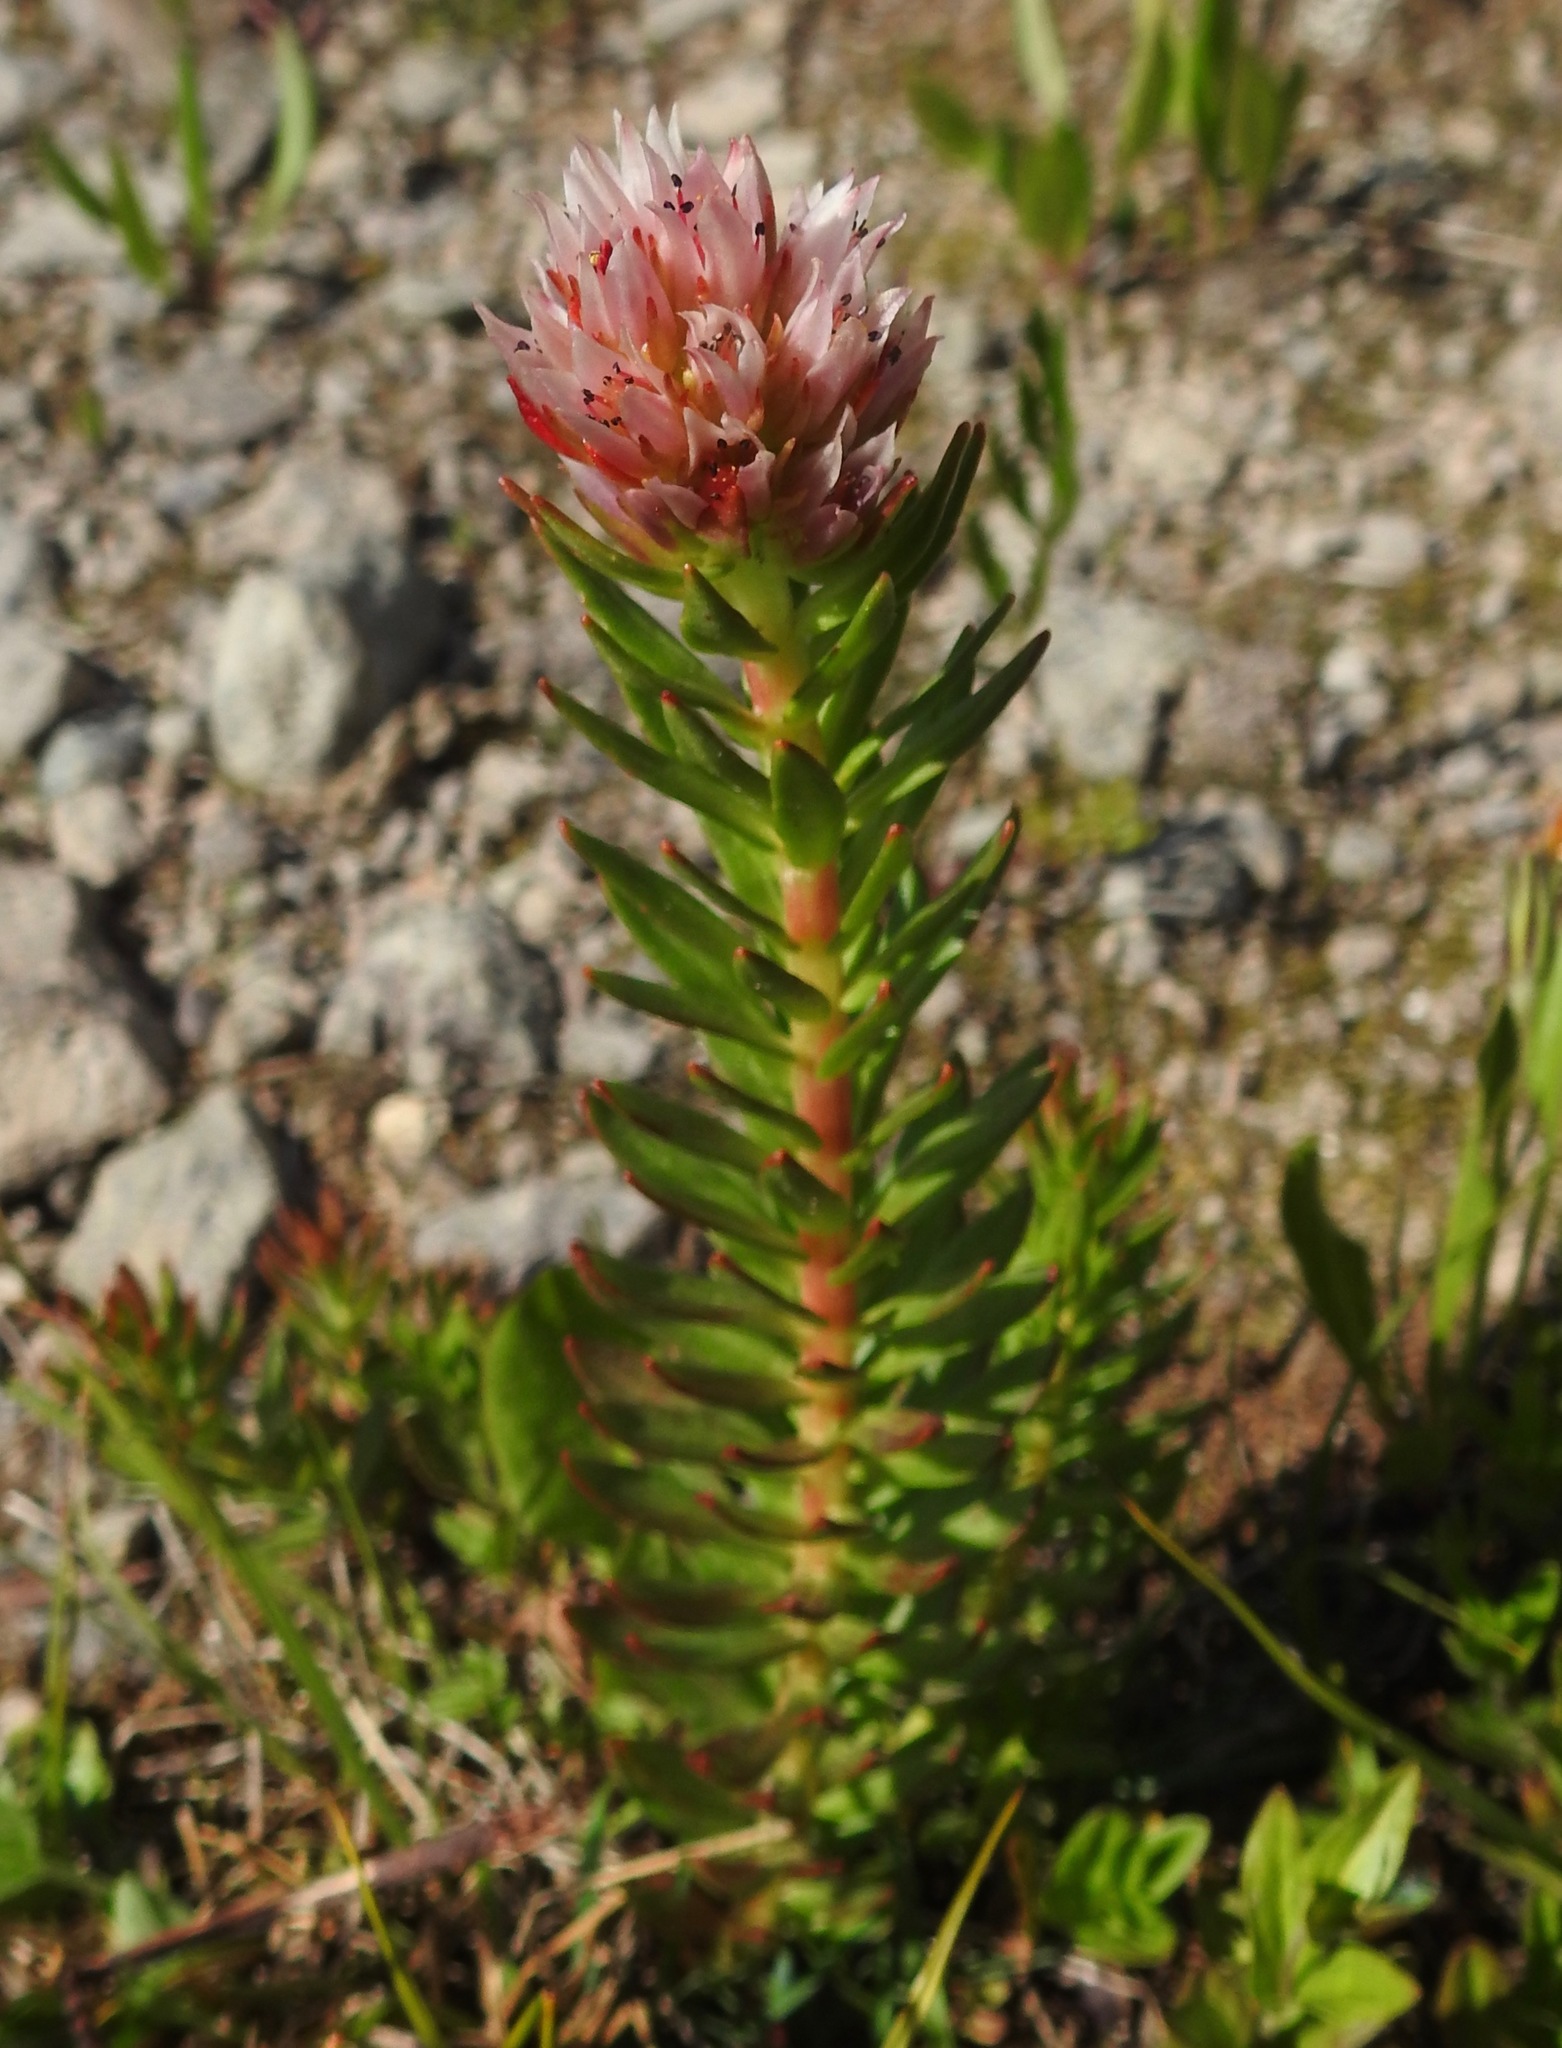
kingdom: Plantae
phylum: Tracheophyta
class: Magnoliopsida
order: Saxifragales
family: Crassulaceae
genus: Rhodiola
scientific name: Rhodiola rhodantha
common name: Red orpine
